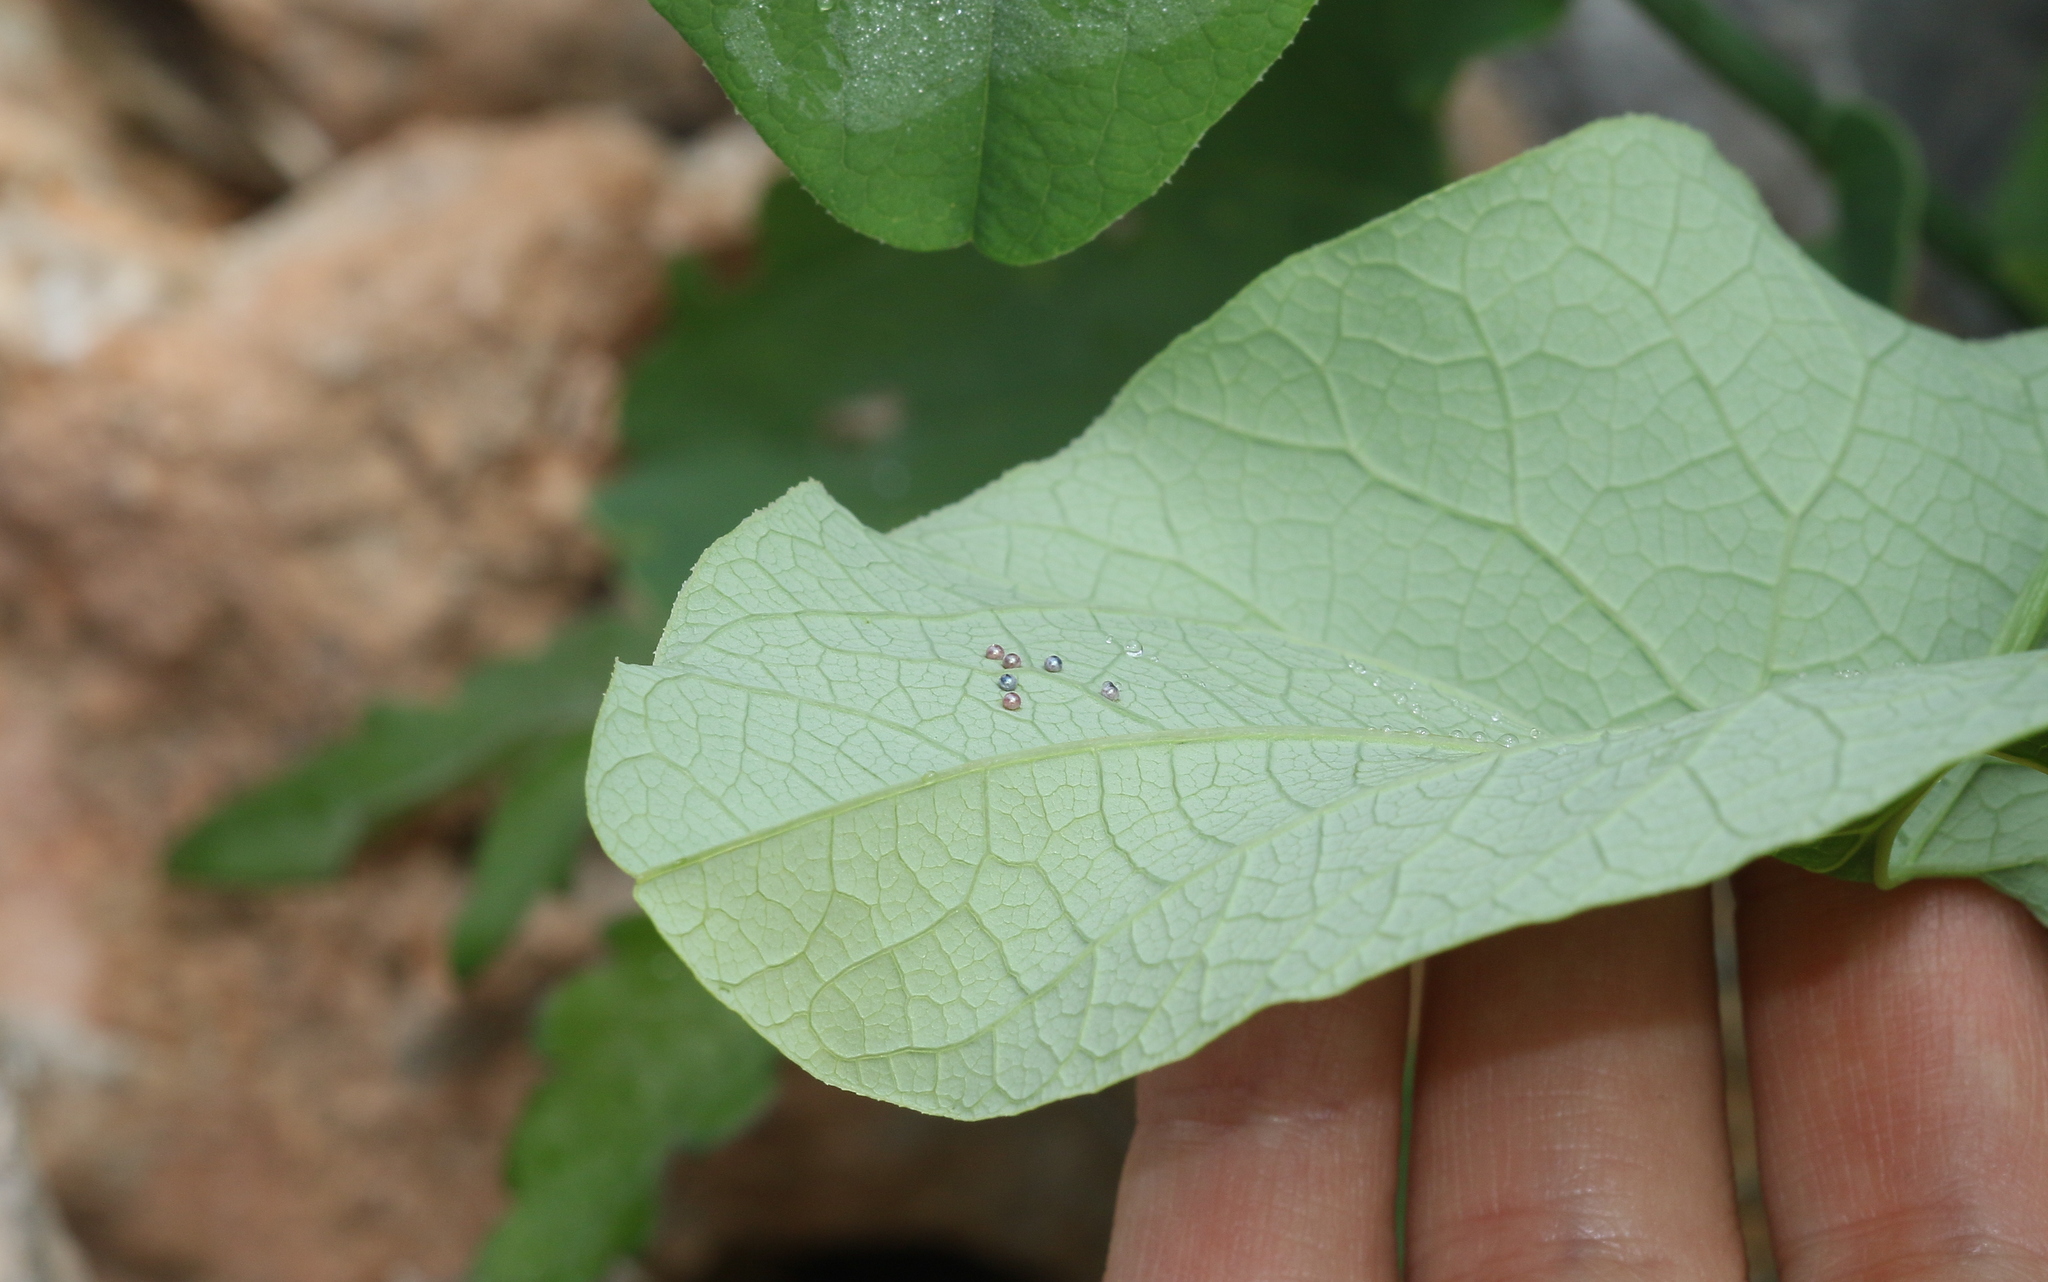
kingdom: Animalia
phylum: Arthropoda
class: Insecta
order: Lepidoptera
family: Papilionidae
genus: Zerynthia
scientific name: Zerynthia cerisy
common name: Eastern festoon
